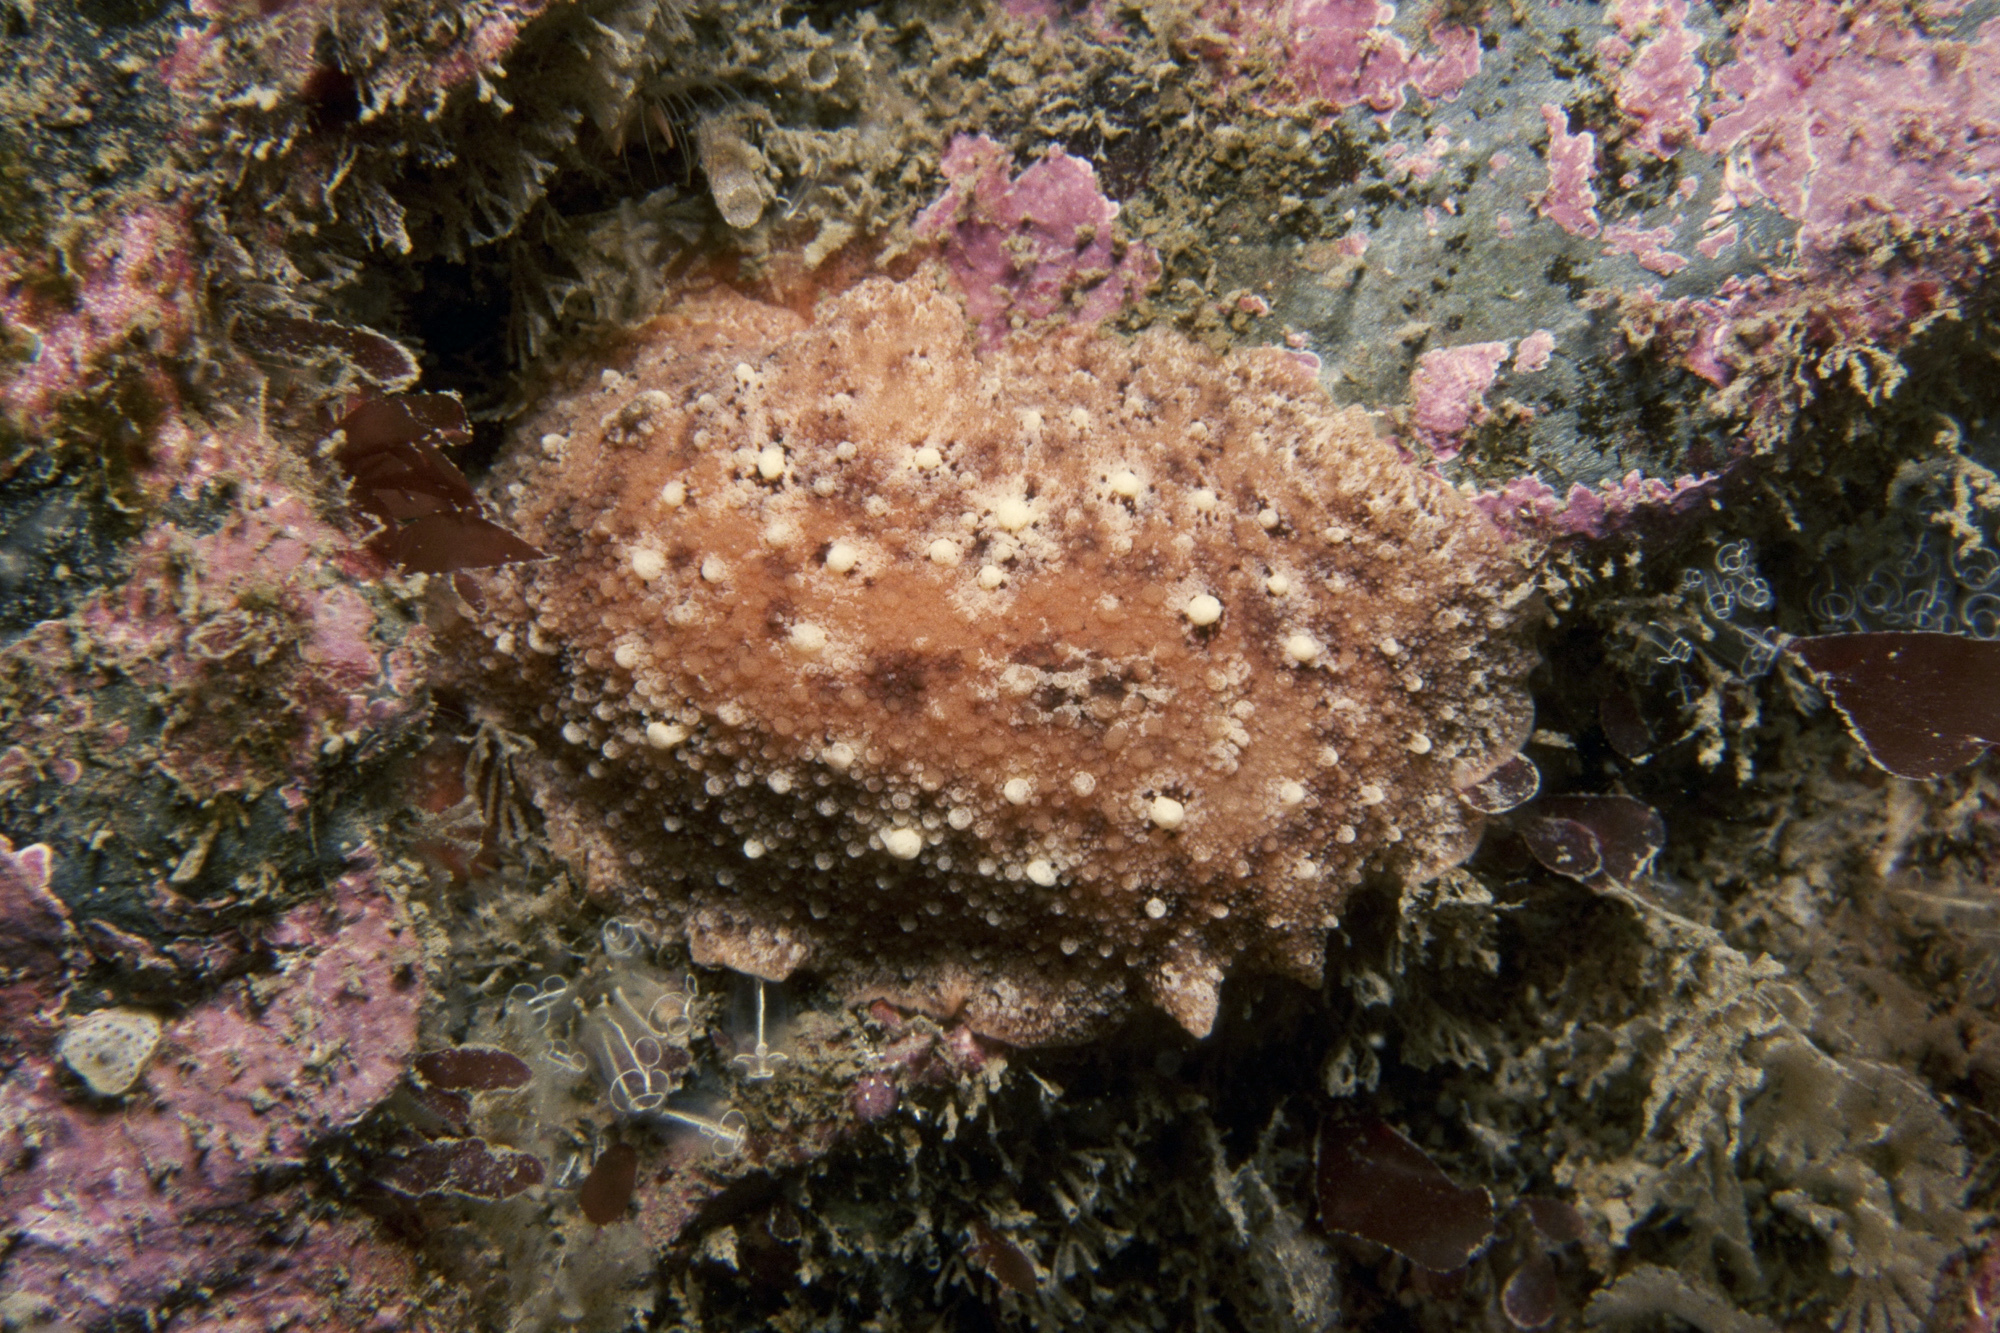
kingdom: Animalia
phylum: Mollusca
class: Gastropoda
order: Nudibranchia
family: Discodorididae
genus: Geitodoris
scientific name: Geitodoris planata
